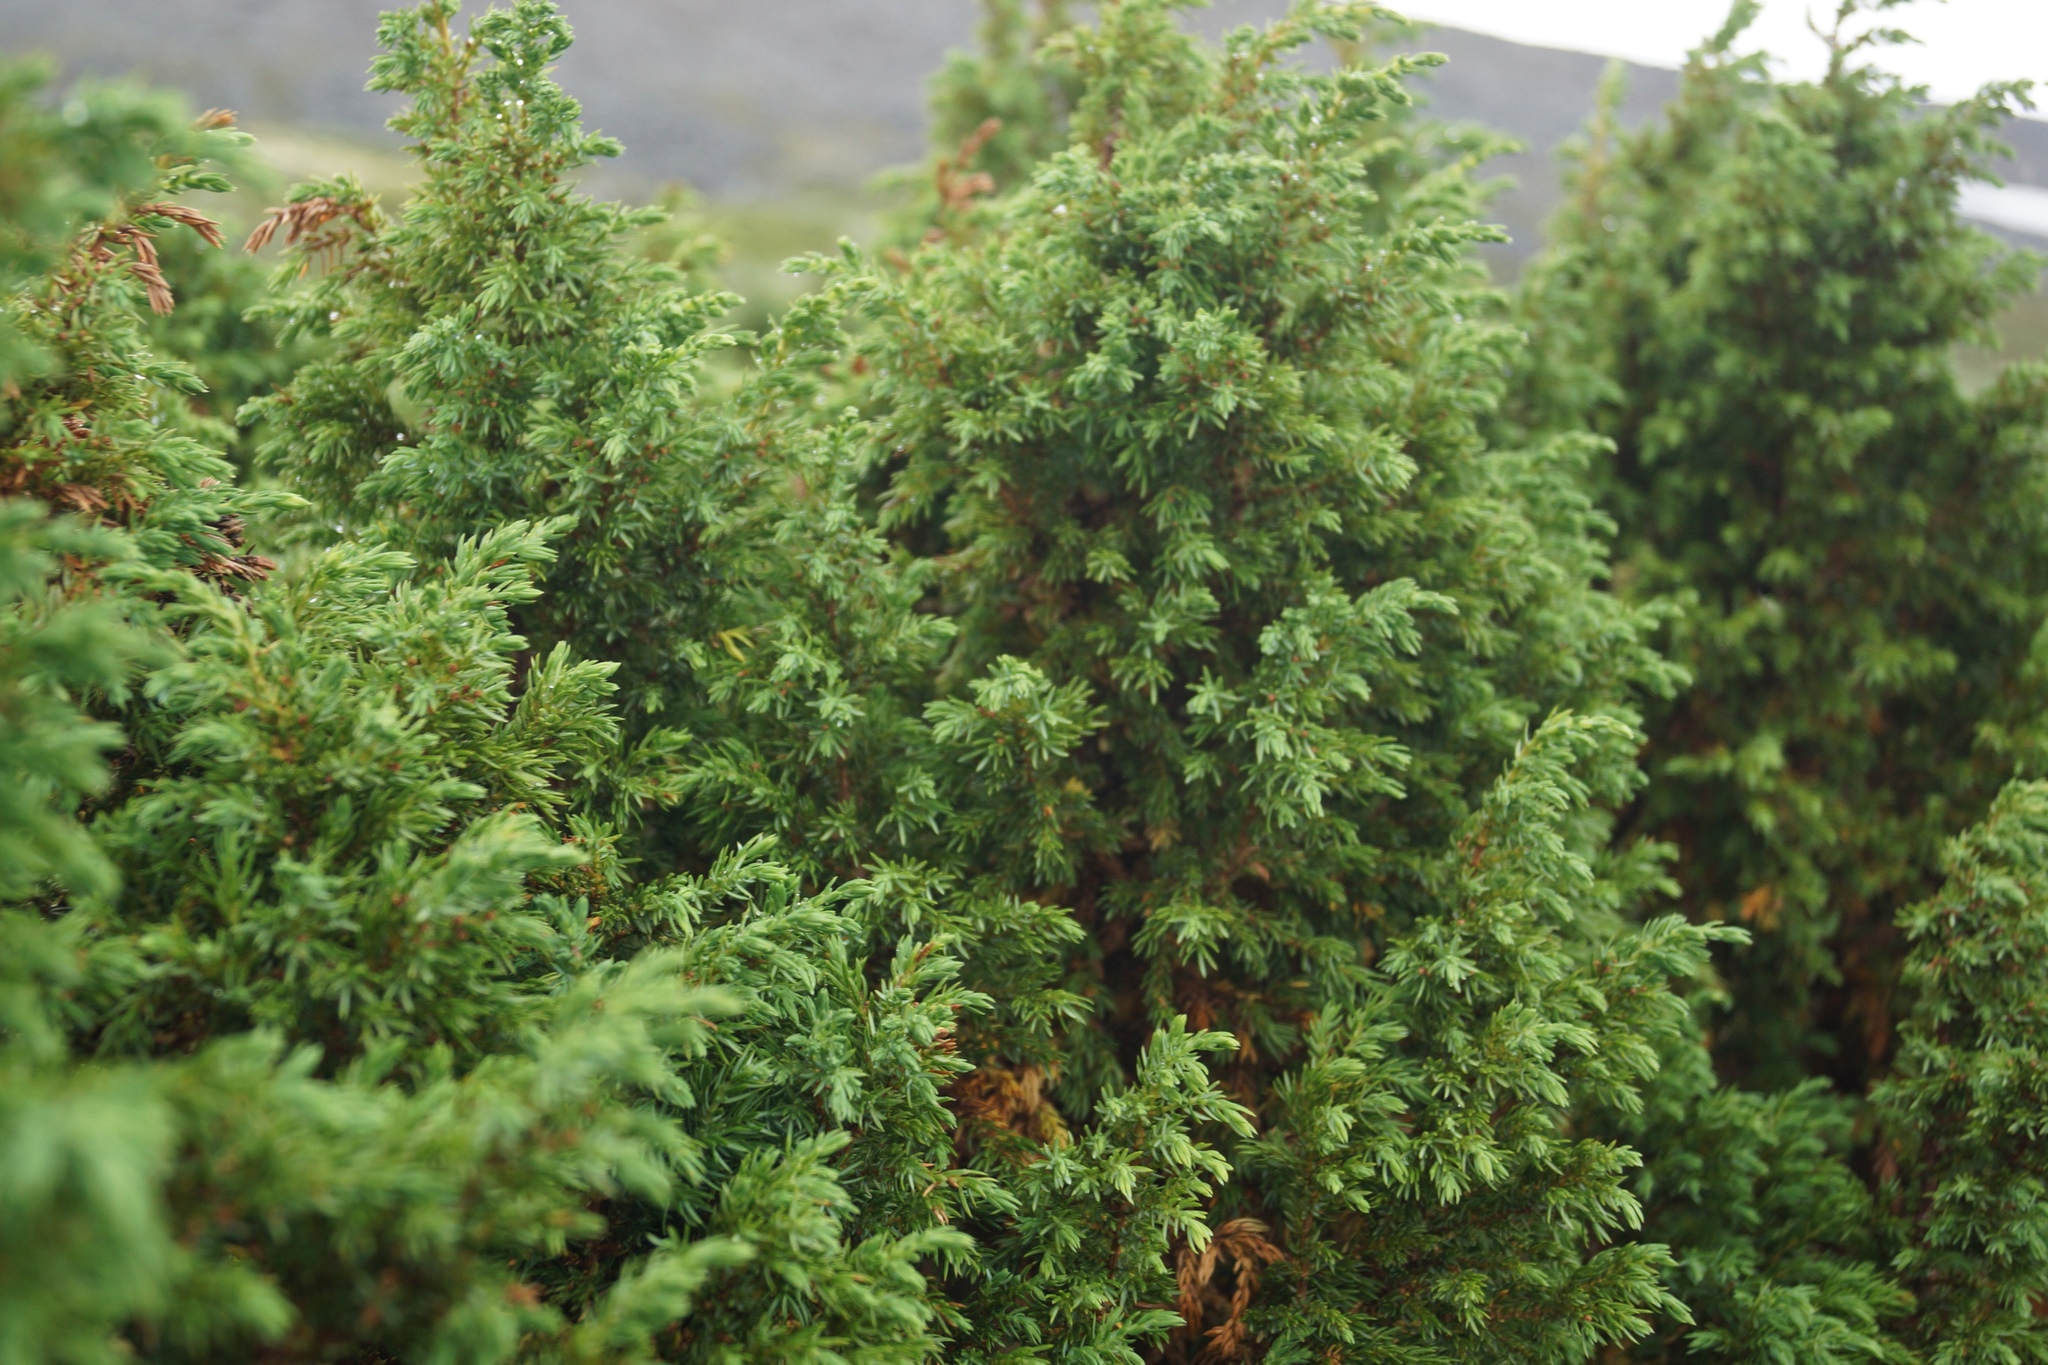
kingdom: Plantae
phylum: Tracheophyta
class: Pinopsida
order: Pinales
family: Cupressaceae
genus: Juniperus
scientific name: Juniperus communis
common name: Common juniper
